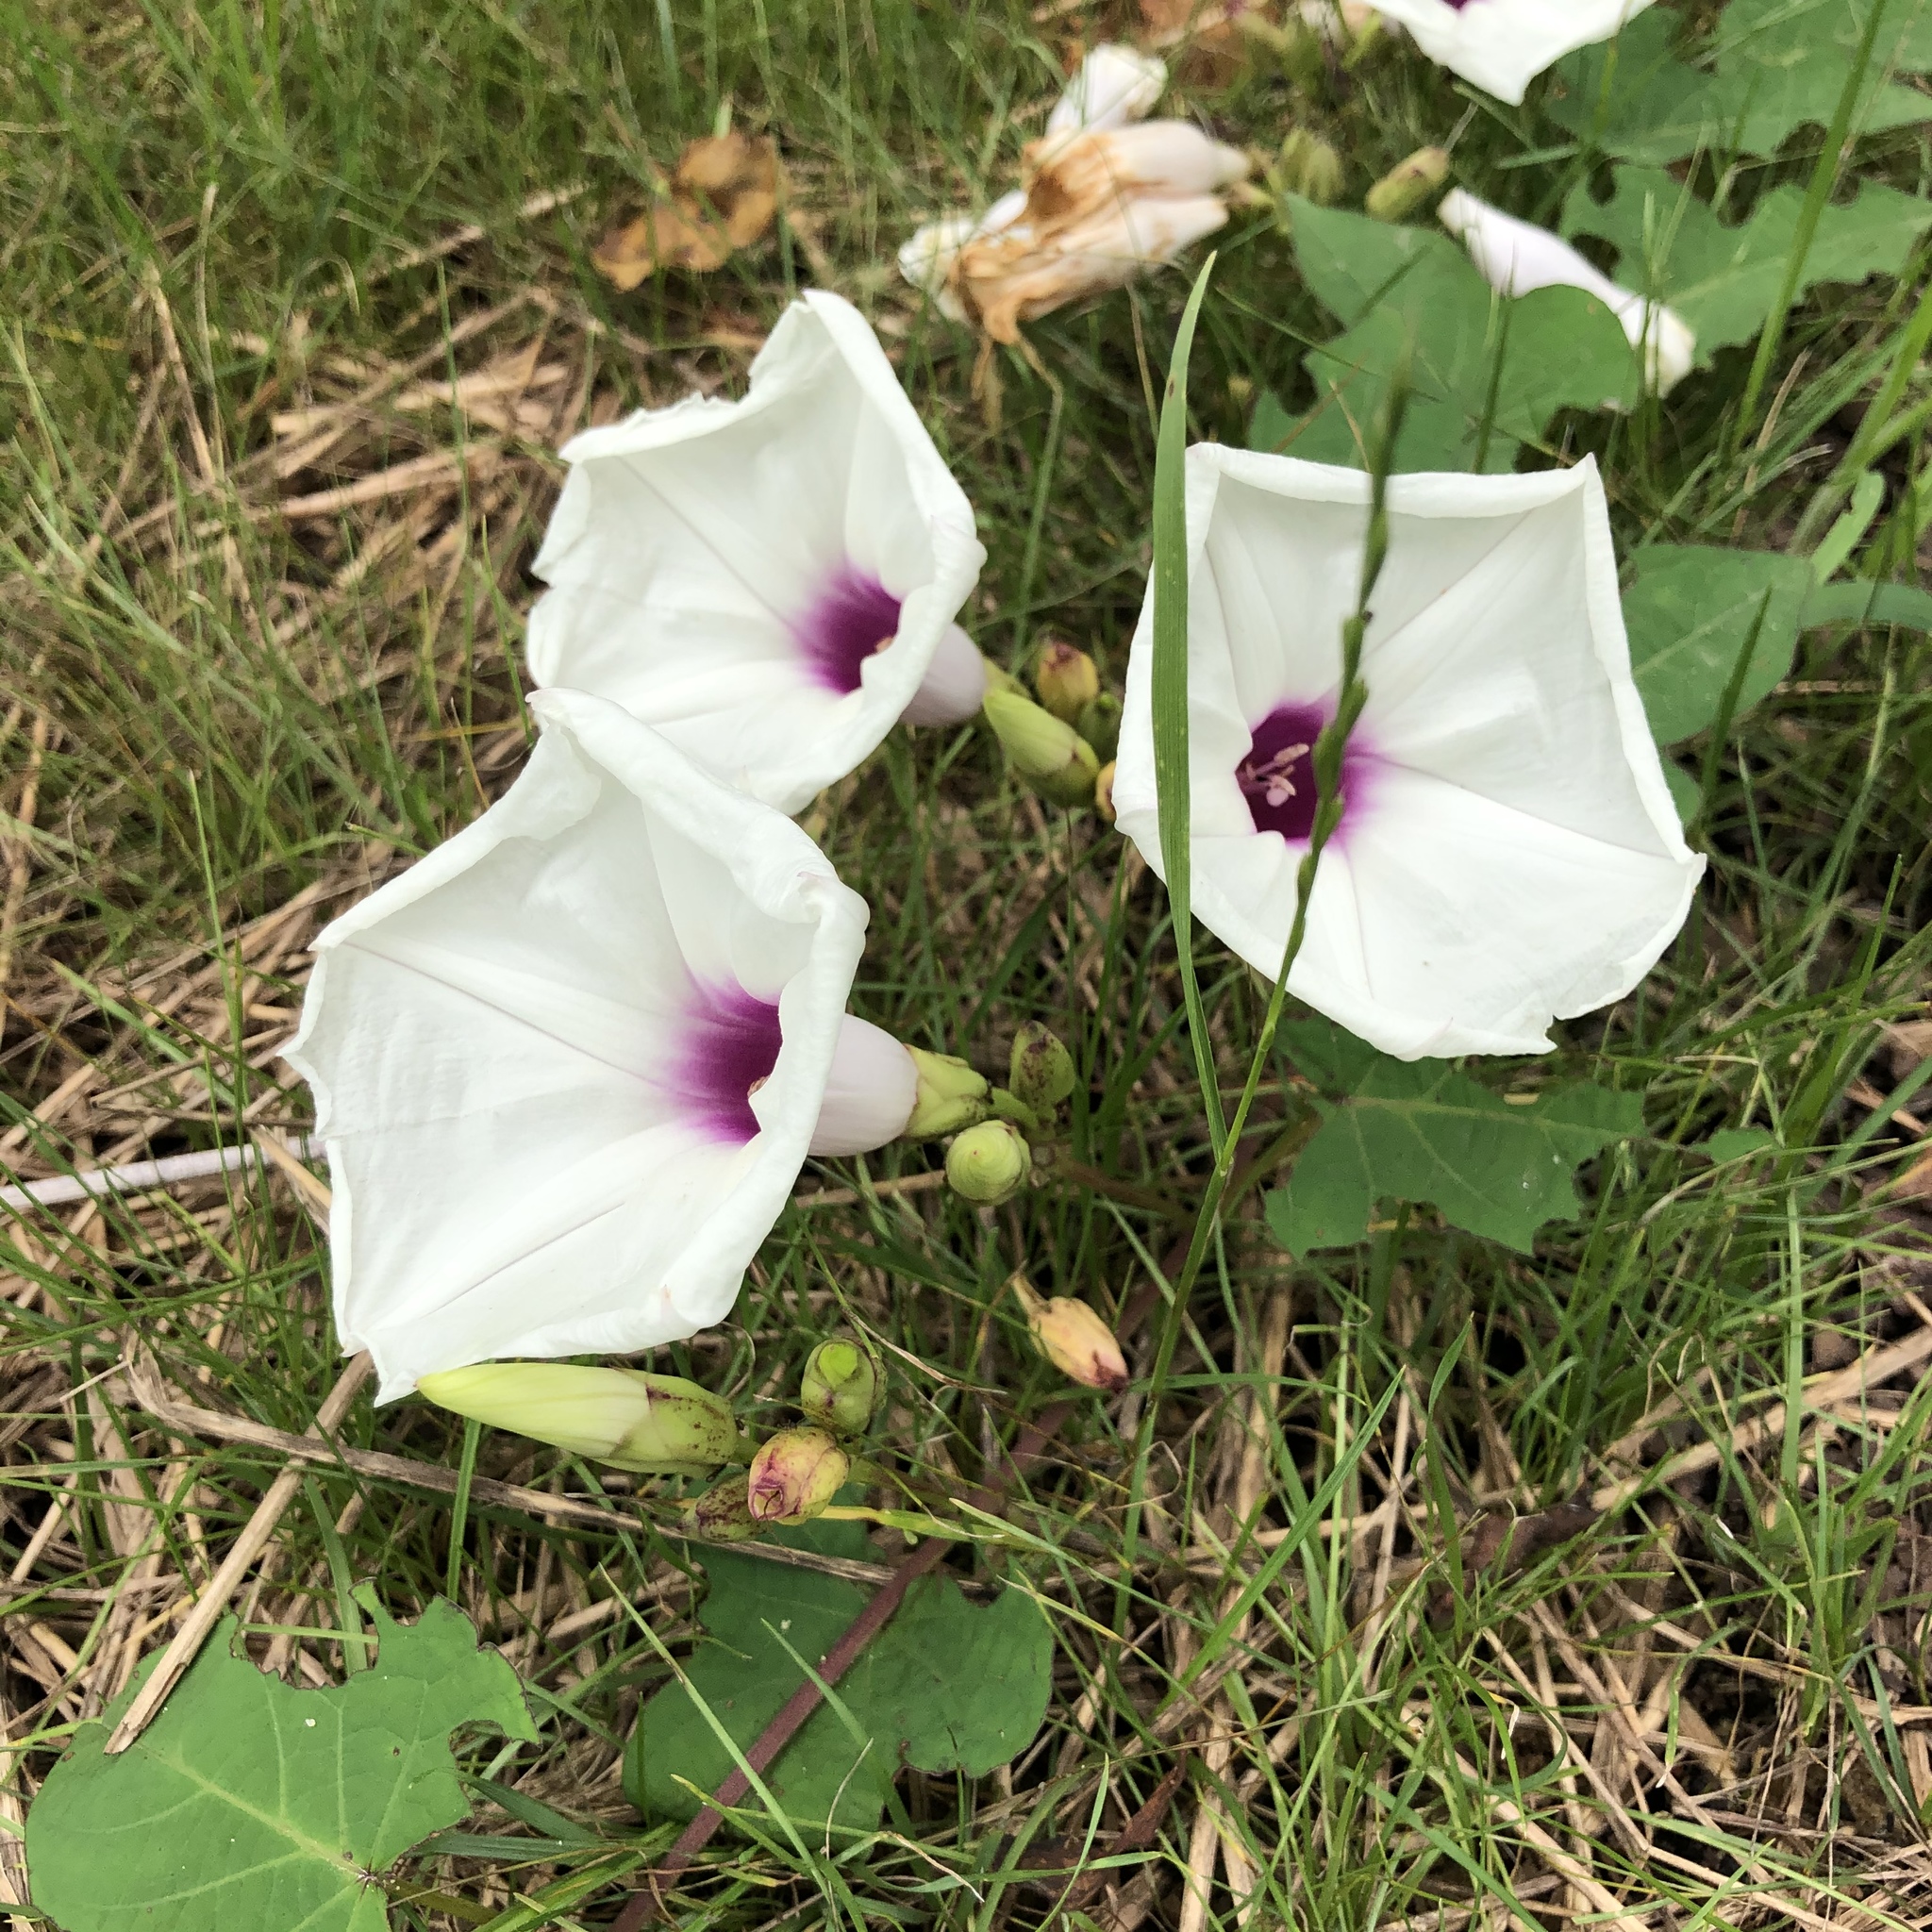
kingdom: Plantae
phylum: Tracheophyta
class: Magnoliopsida
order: Solanales
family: Convolvulaceae
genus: Ipomoea
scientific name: Ipomoea pandurata
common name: Man-of-the-earth
